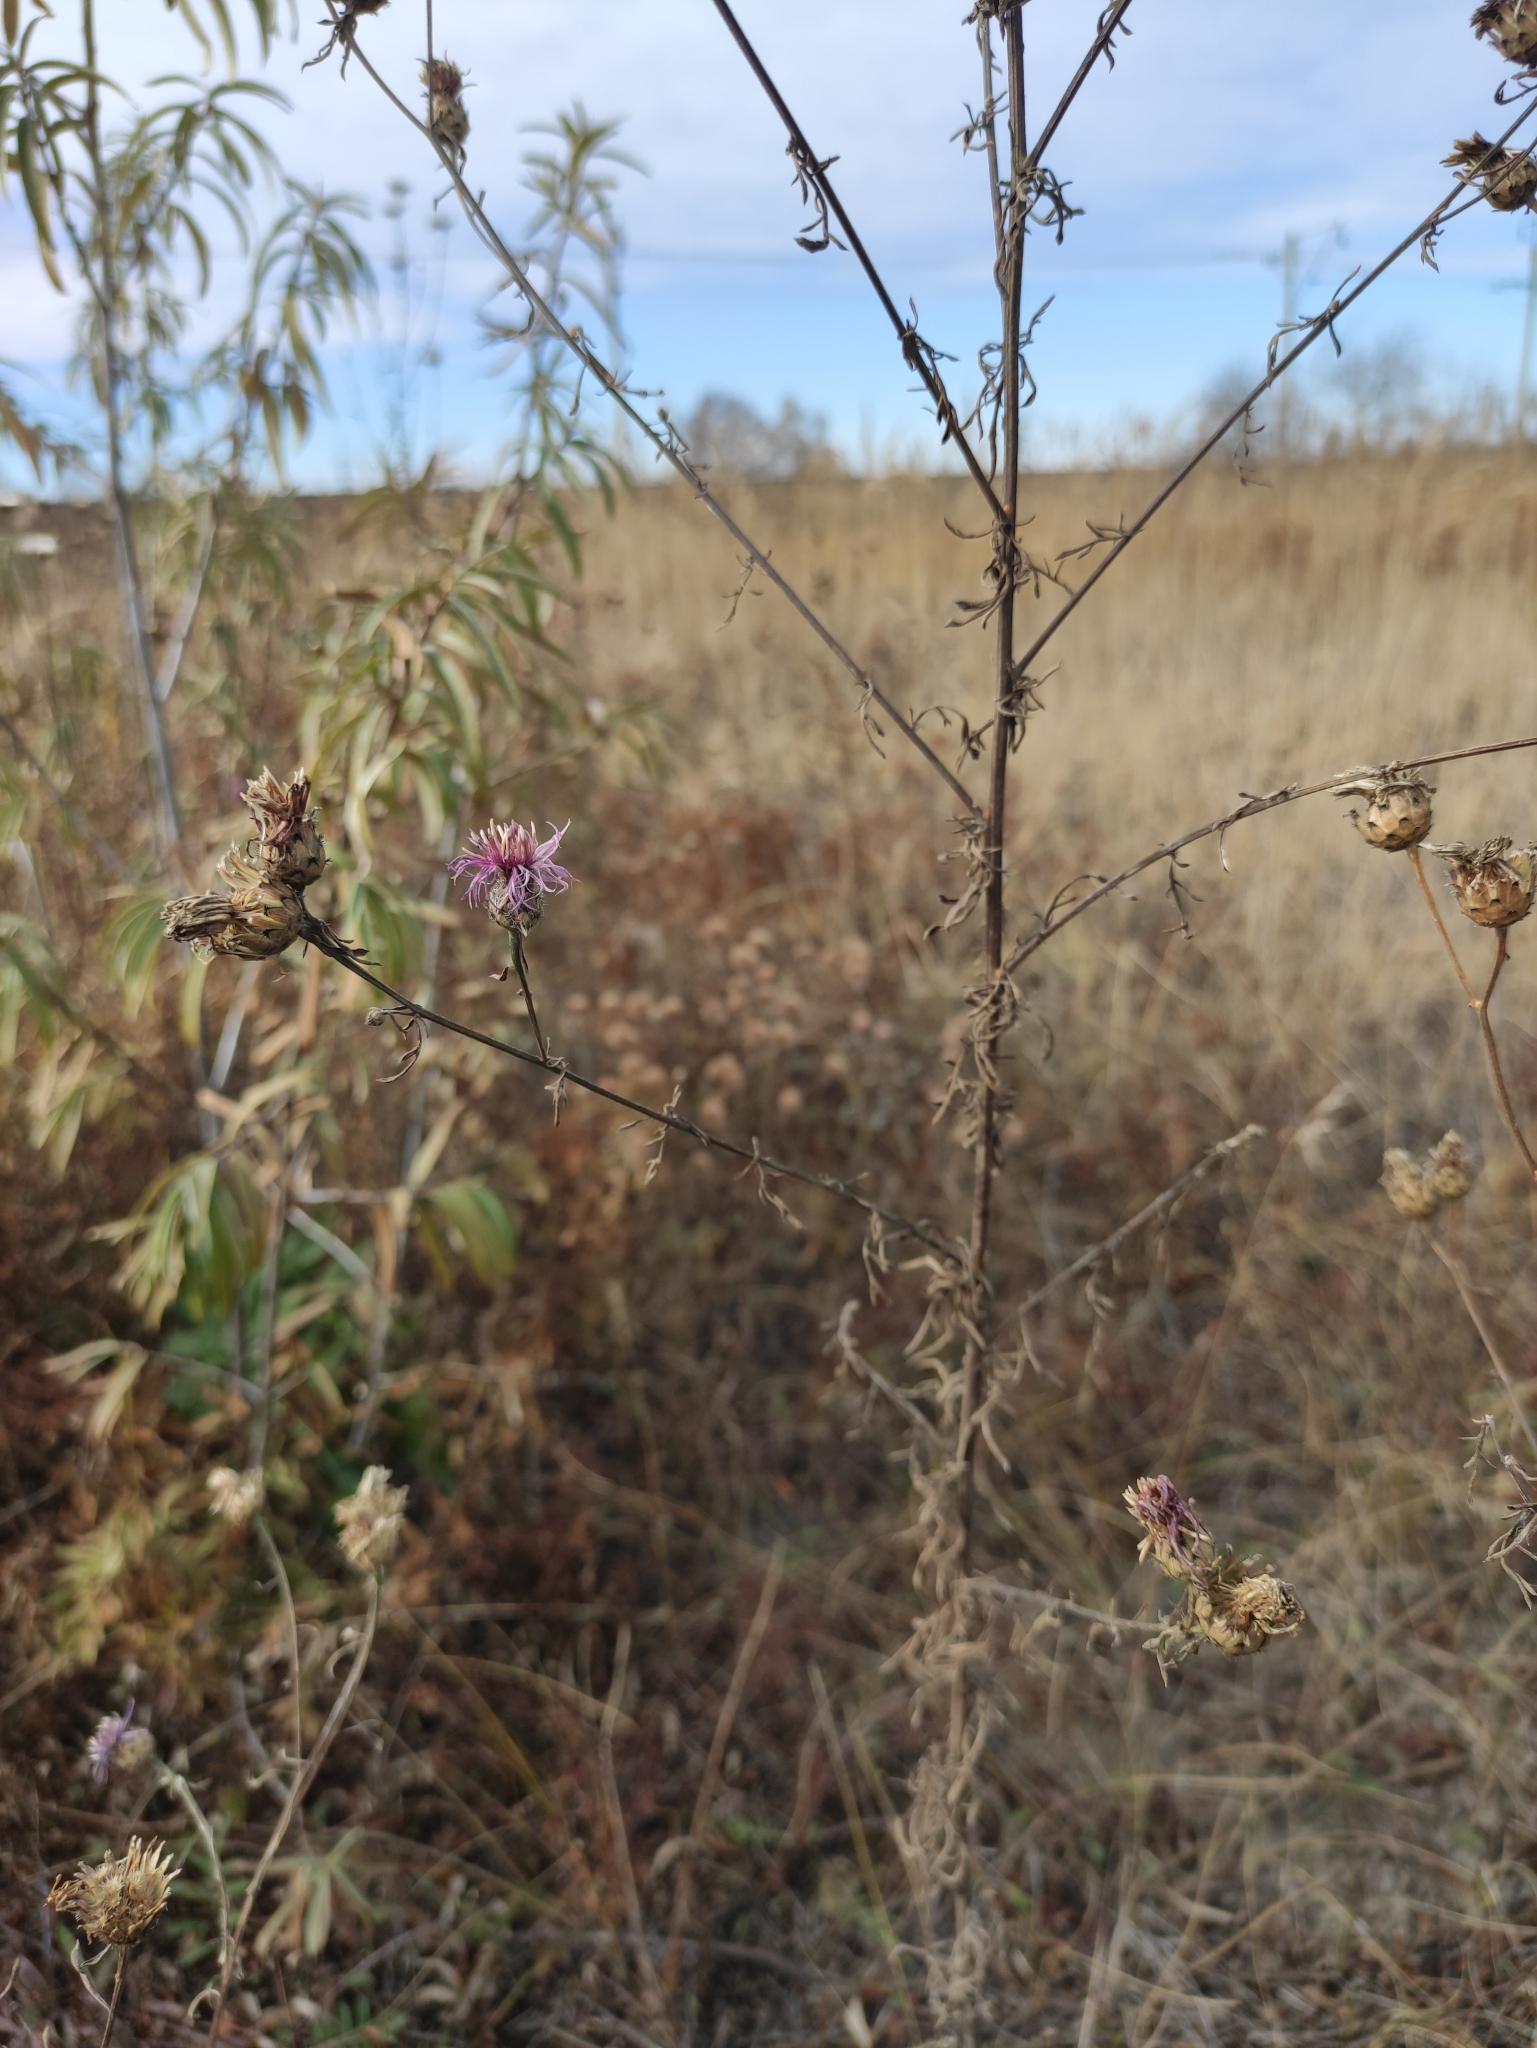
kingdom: Plantae
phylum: Tracheophyta
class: Magnoliopsida
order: Asterales
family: Asteraceae
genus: Centaurea
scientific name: Centaurea stoebe
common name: Spotted knapweed
